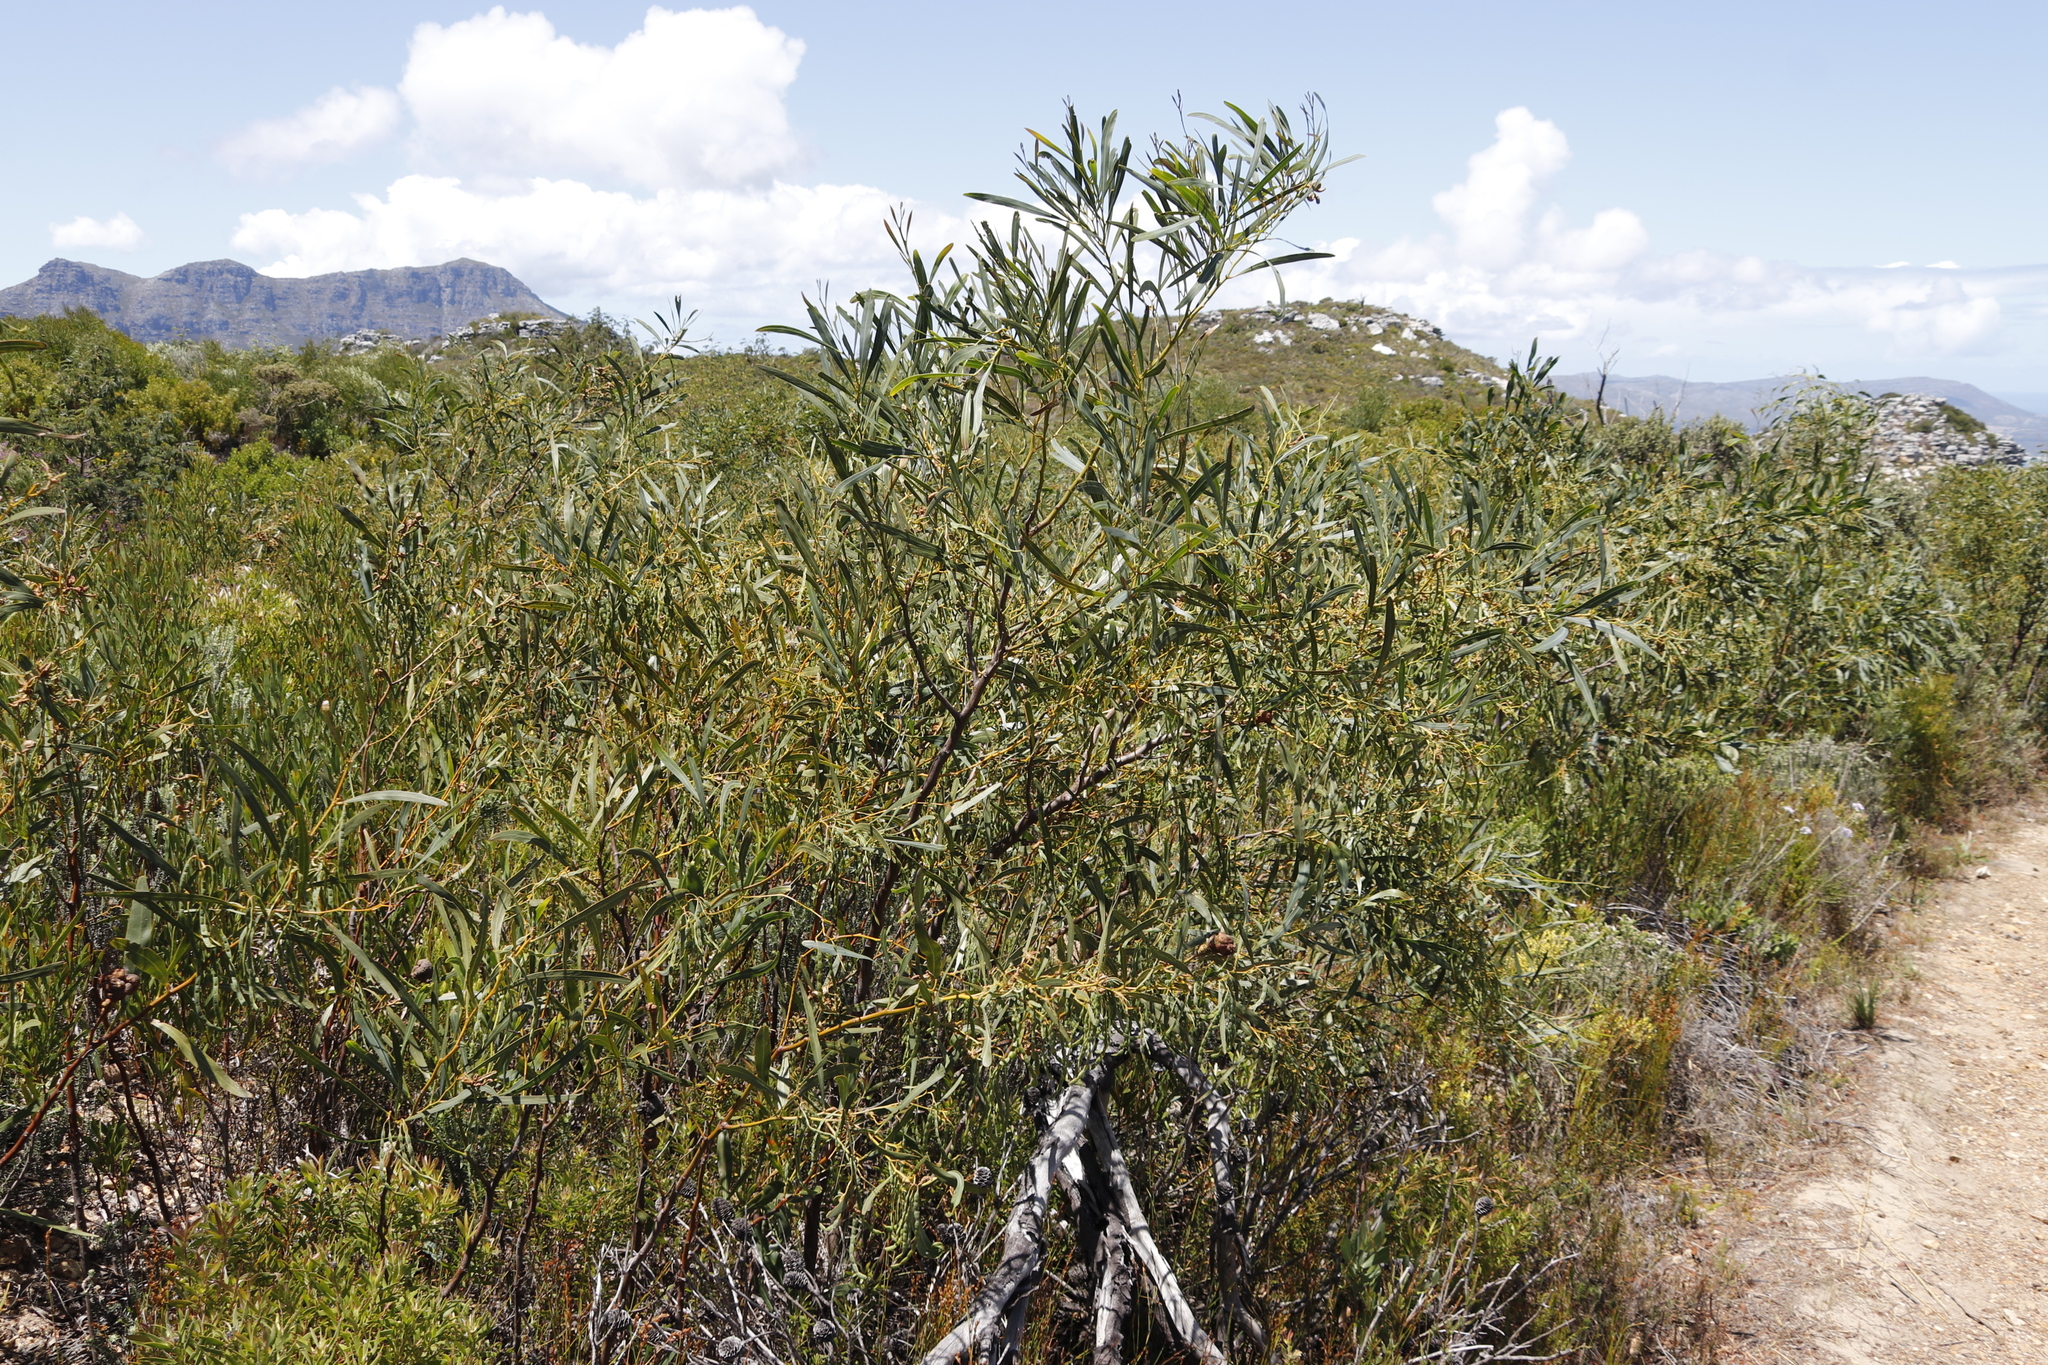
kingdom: Plantae
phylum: Tracheophyta
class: Magnoliopsida
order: Fabales
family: Fabaceae
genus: Acacia
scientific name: Acacia saligna
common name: Orange wattle
